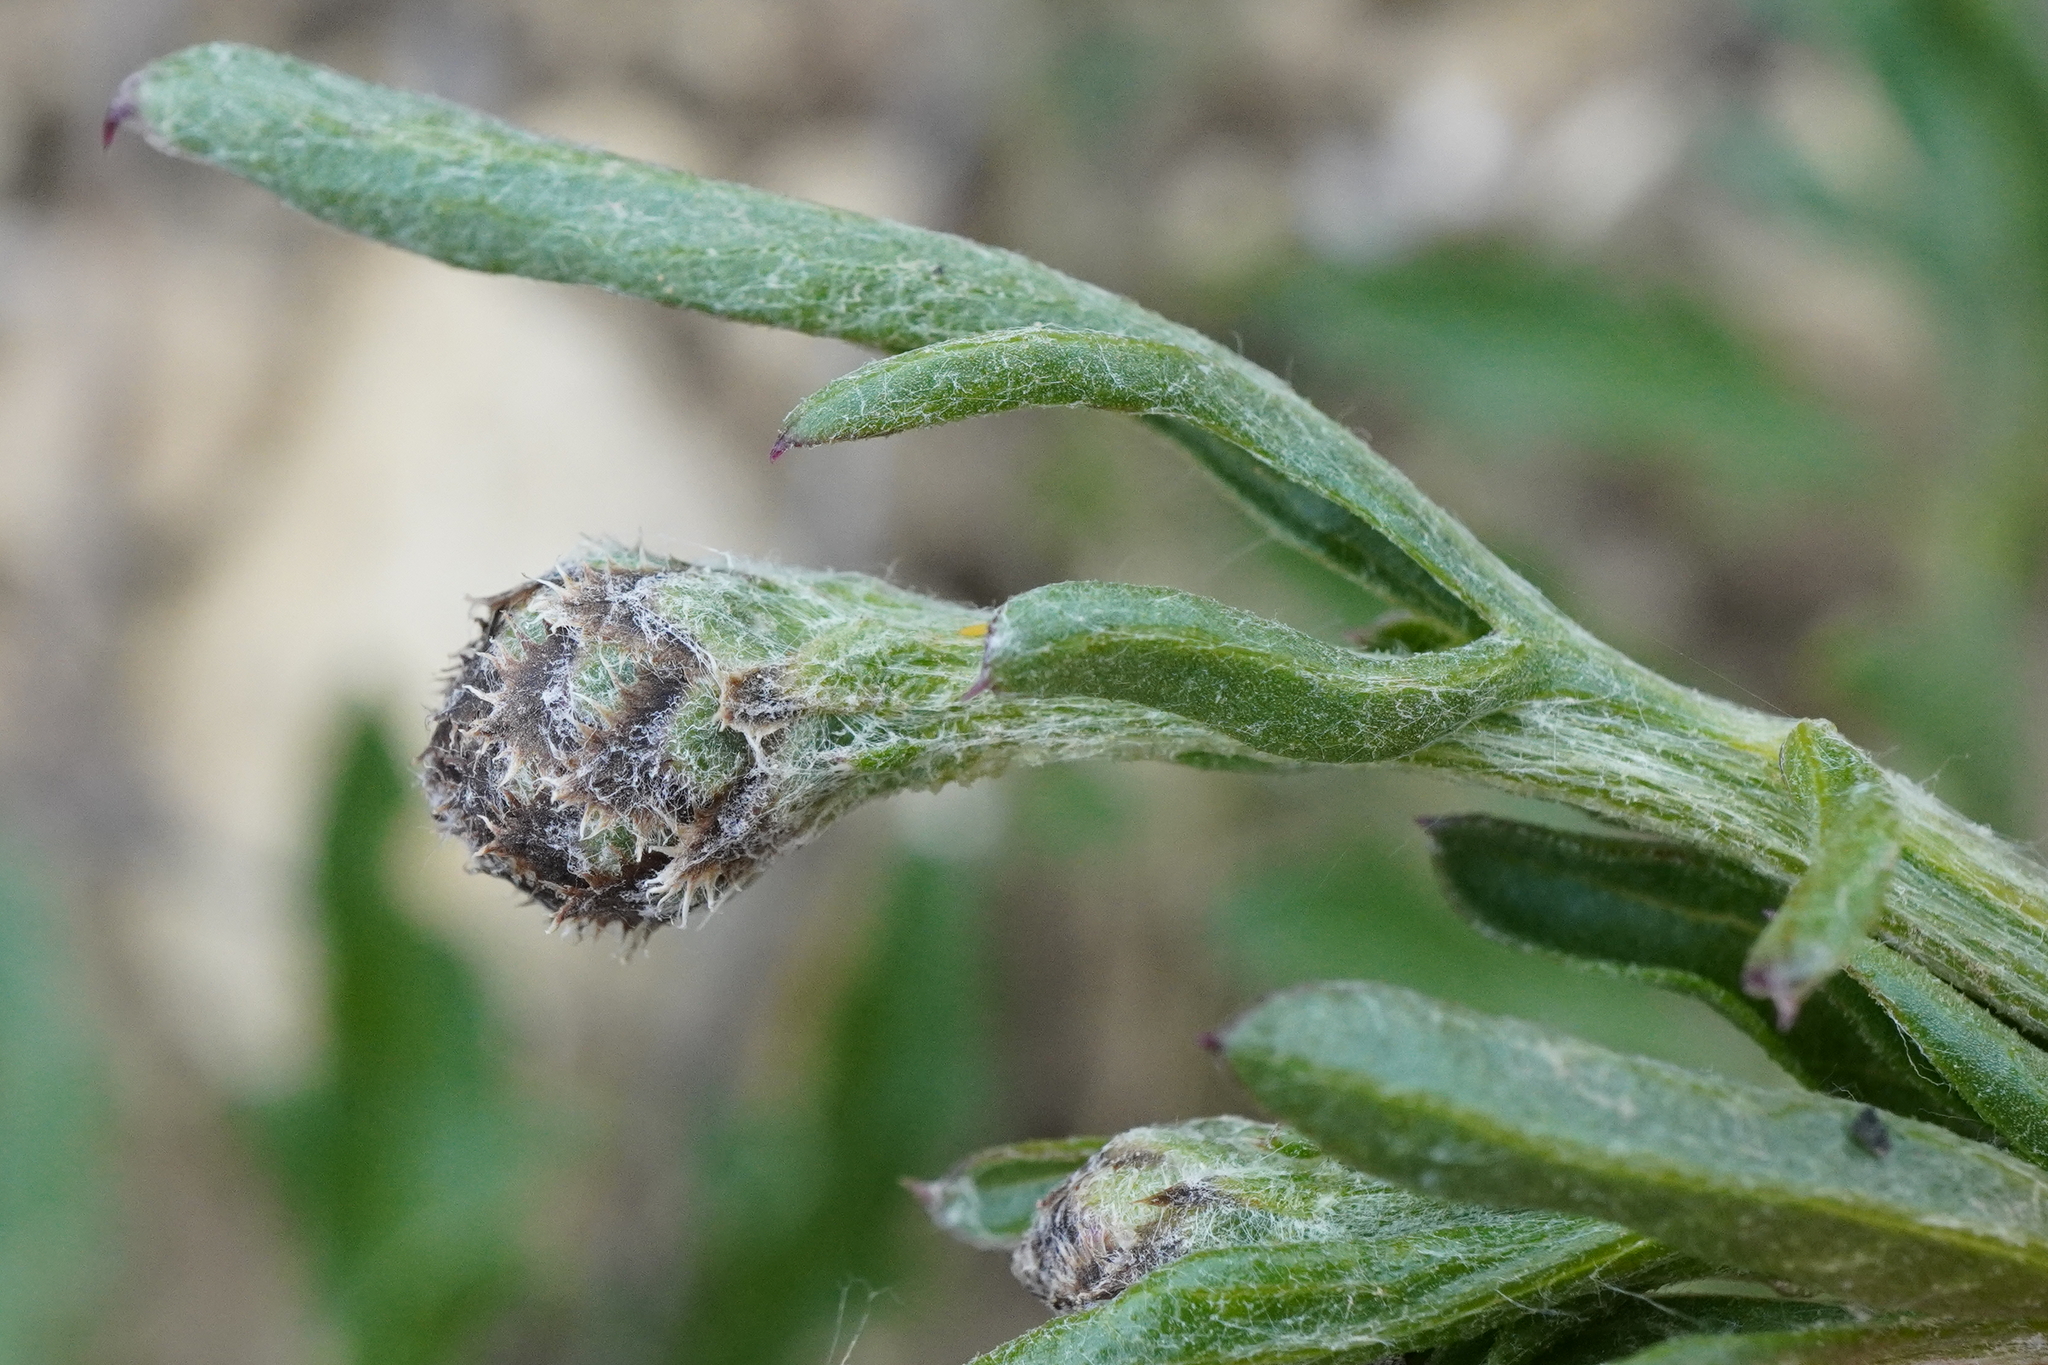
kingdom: Plantae
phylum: Tracheophyta
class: Magnoliopsida
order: Asterales
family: Asteraceae
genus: Centaurea
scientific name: Centaurea scabiosa
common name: Greater knapweed
